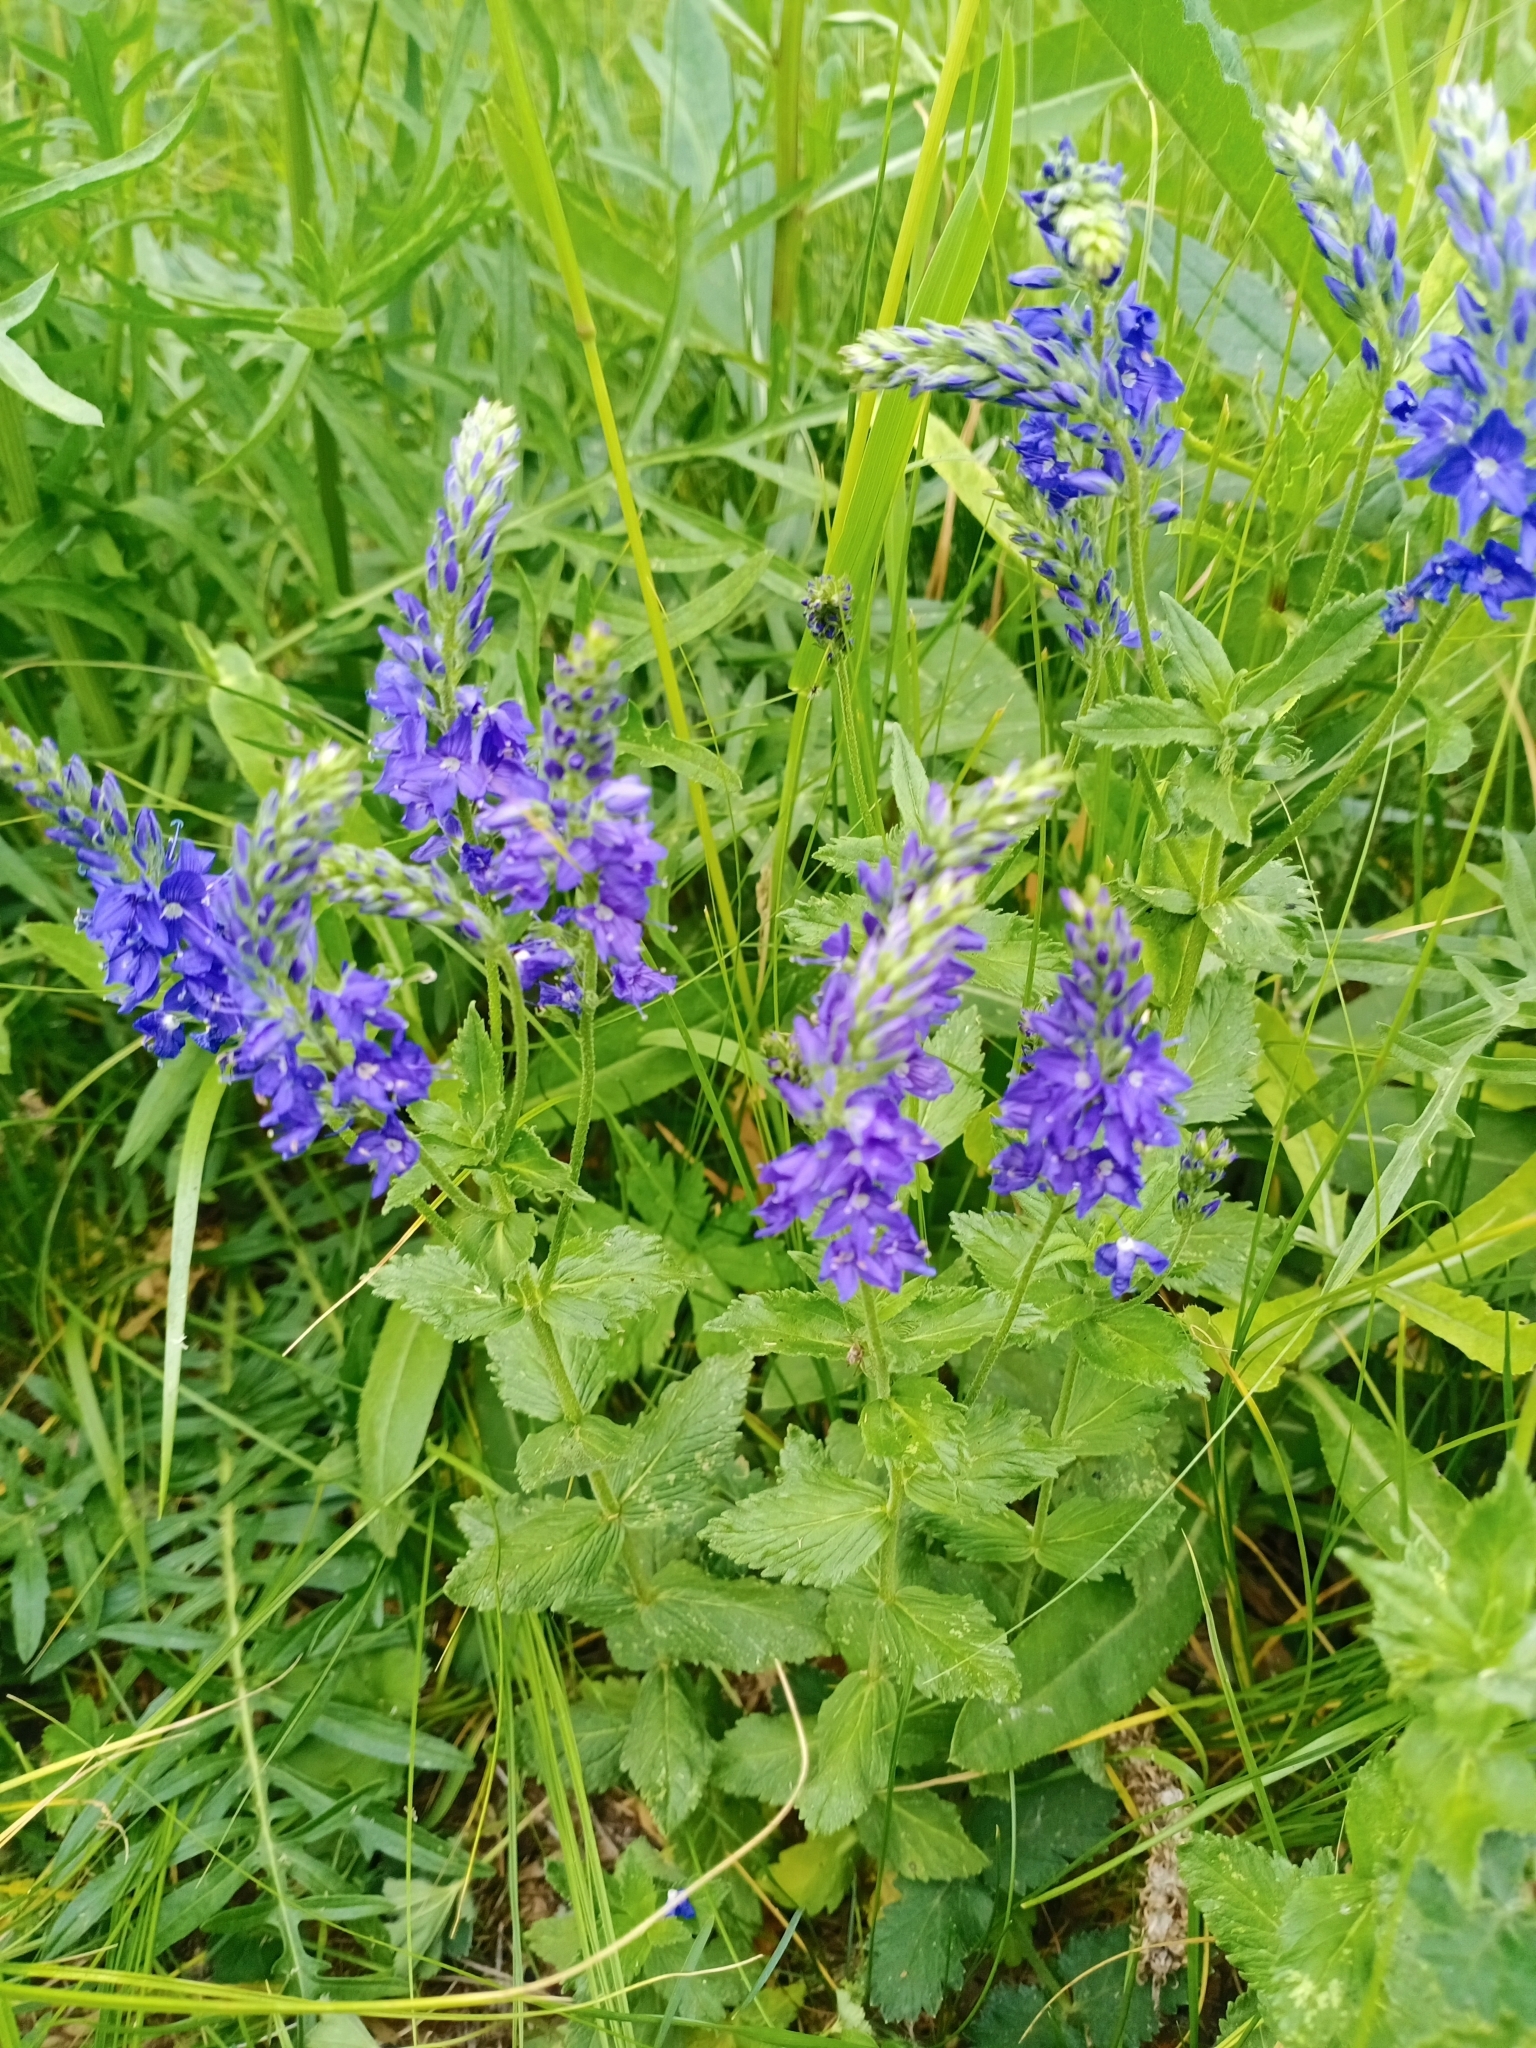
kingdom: Plantae
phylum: Tracheophyta
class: Magnoliopsida
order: Lamiales
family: Plantaginaceae
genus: Veronica
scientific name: Veronica teucrium
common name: Large speedwell
